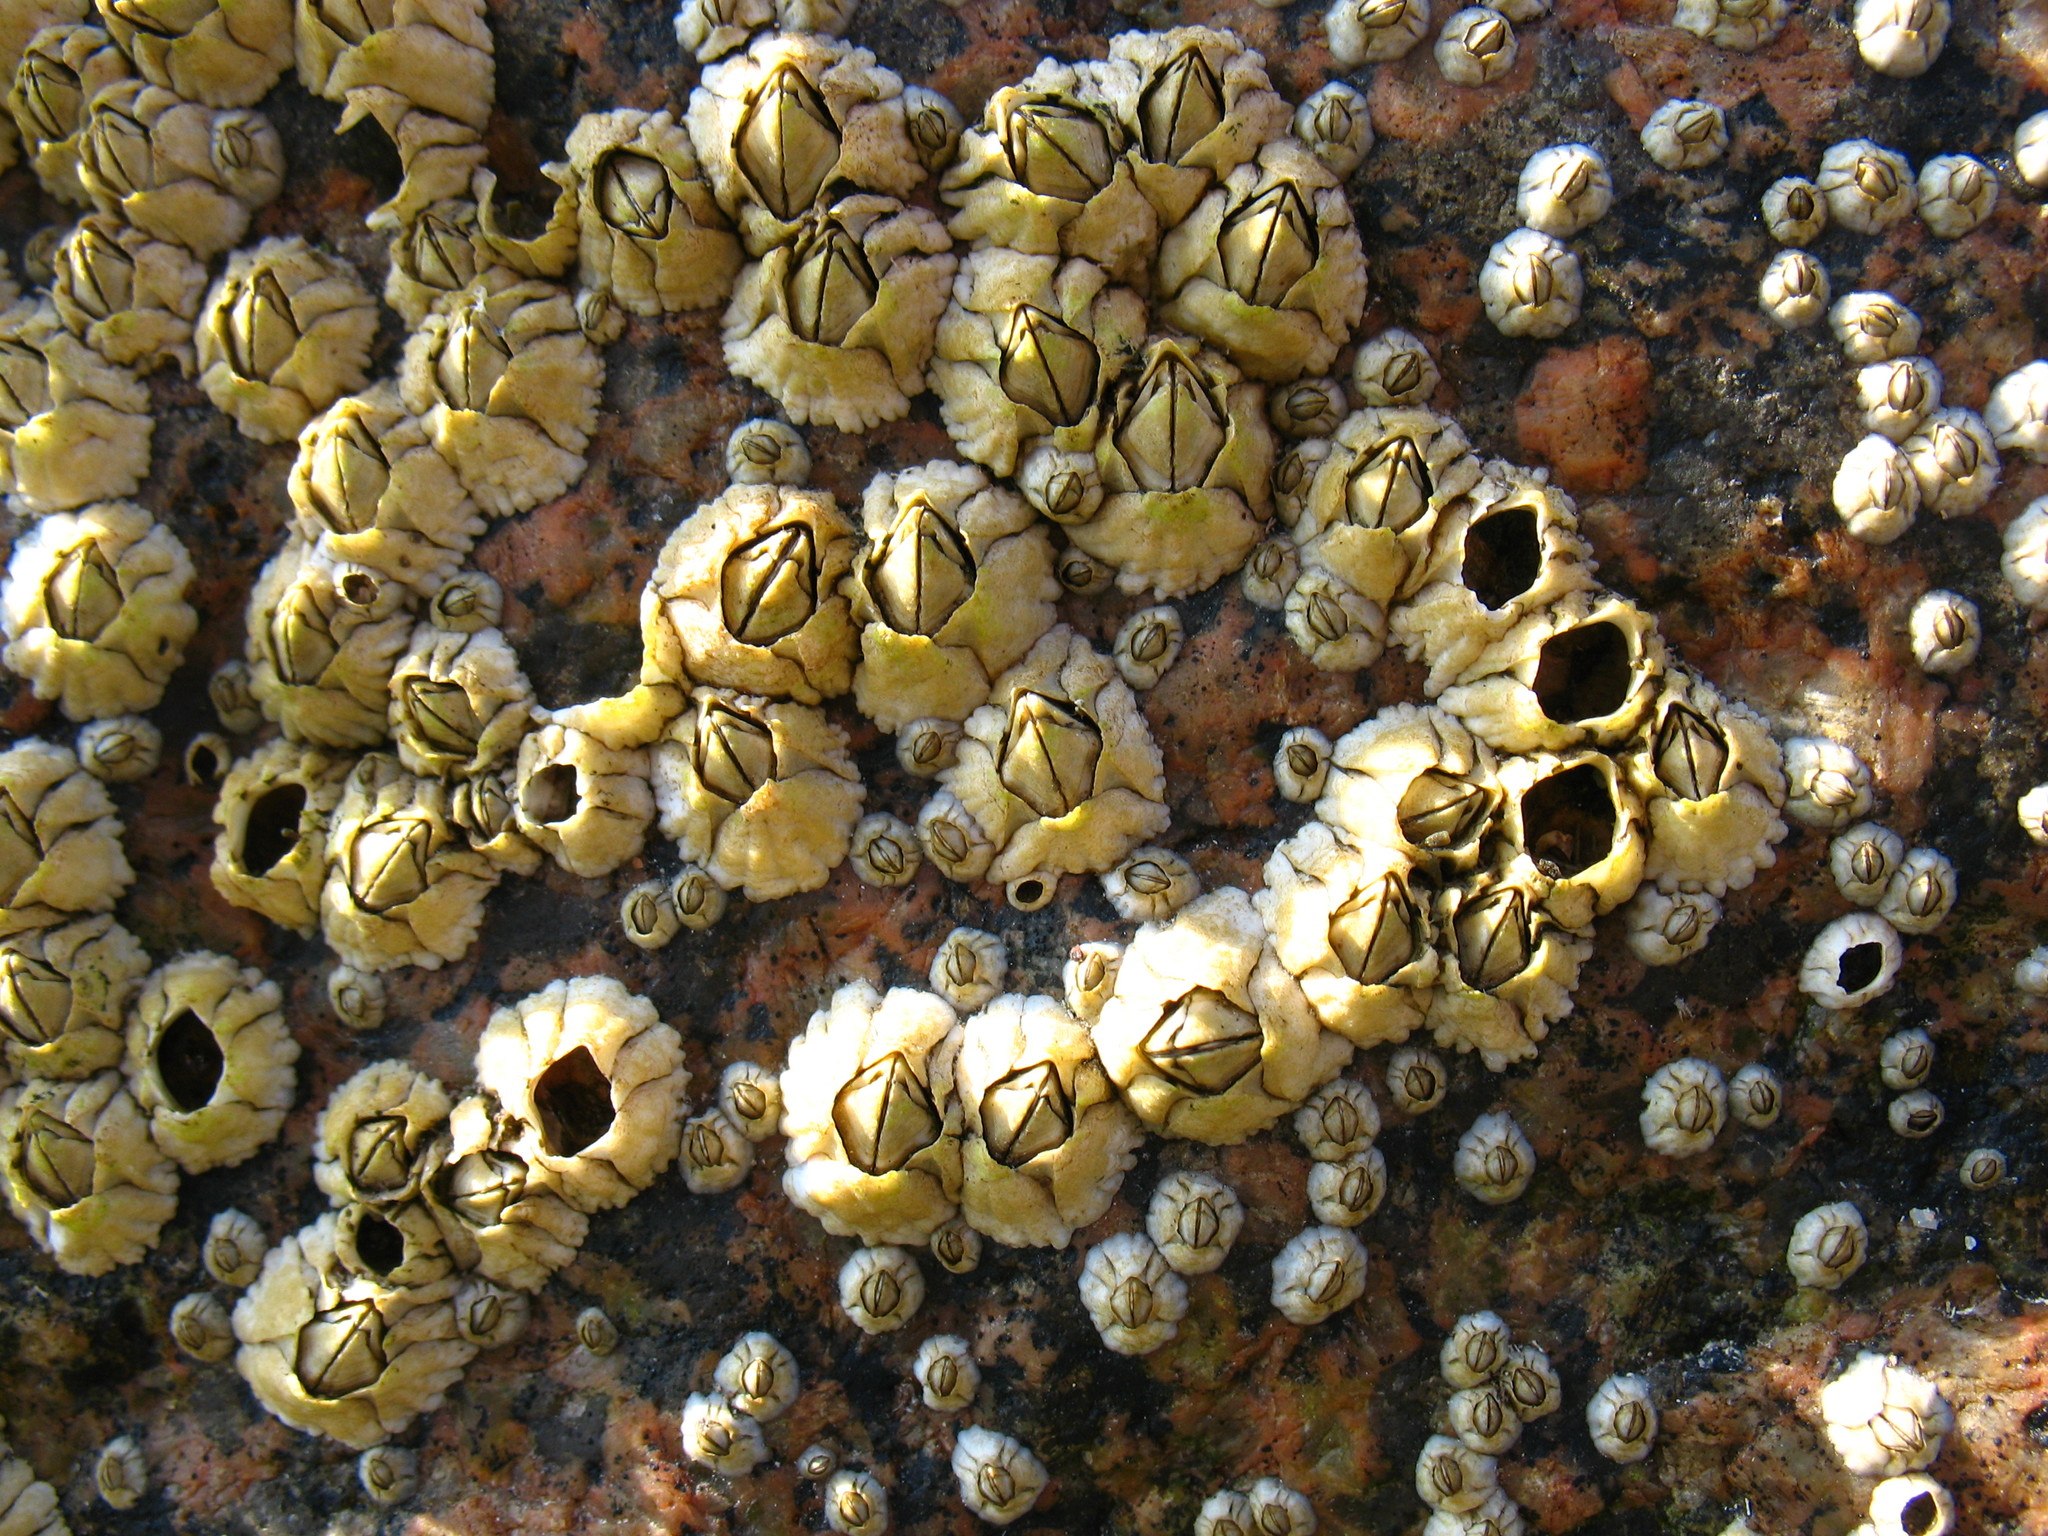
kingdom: Animalia
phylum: Arthropoda
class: Maxillopoda
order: Sessilia
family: Archaeobalanidae
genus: Semibalanus
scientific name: Semibalanus balanoides
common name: Acorn barnacle
